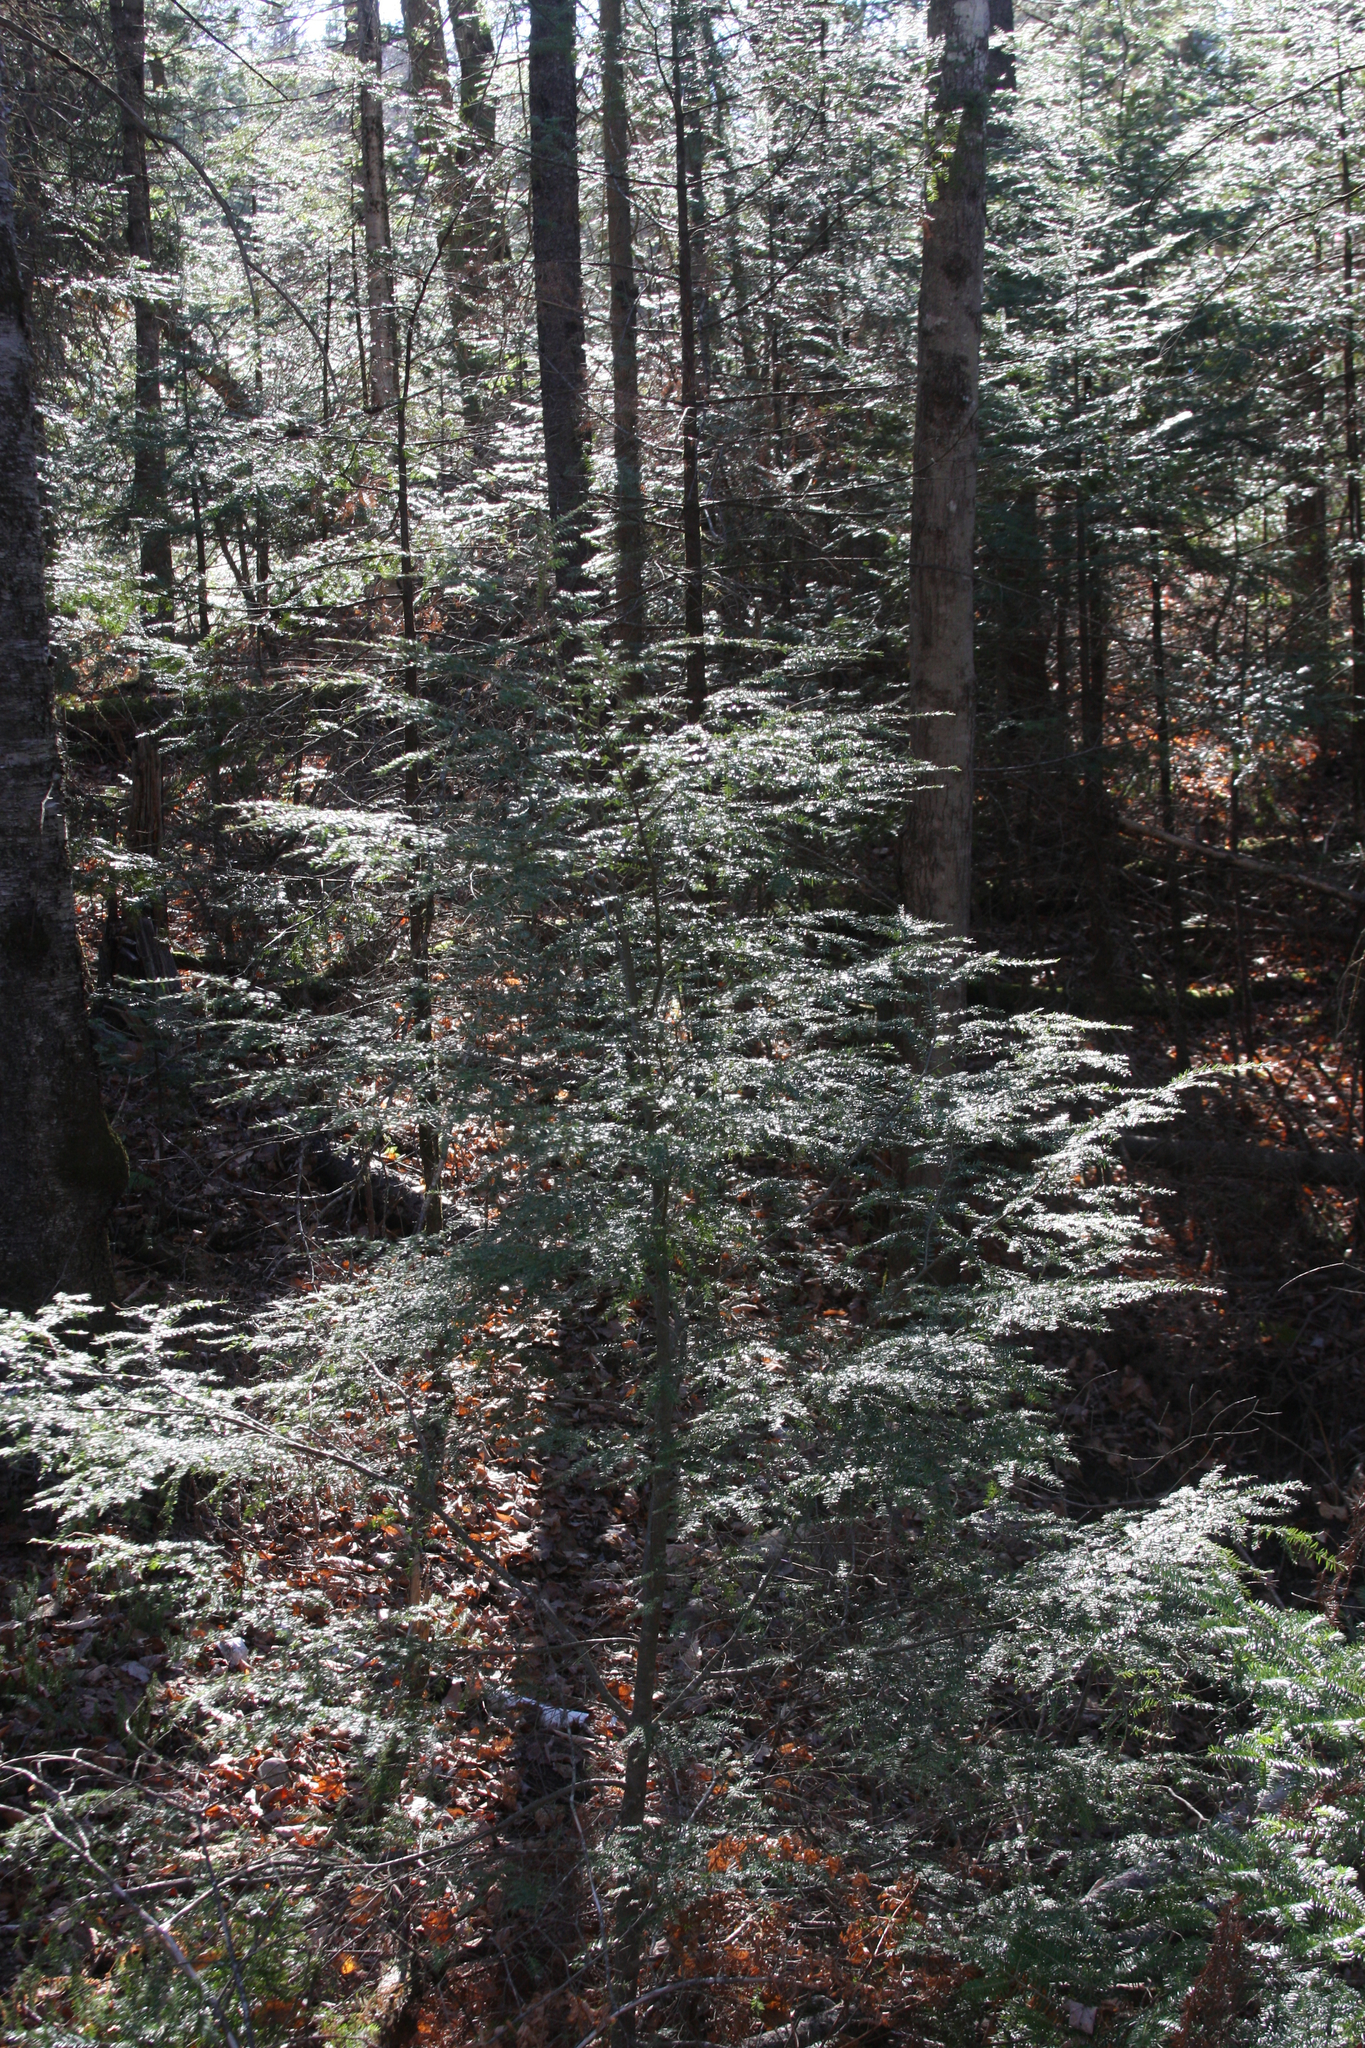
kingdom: Plantae
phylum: Tracheophyta
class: Pinopsida
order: Pinales
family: Pinaceae
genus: Tsuga
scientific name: Tsuga canadensis
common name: Eastern hemlock
